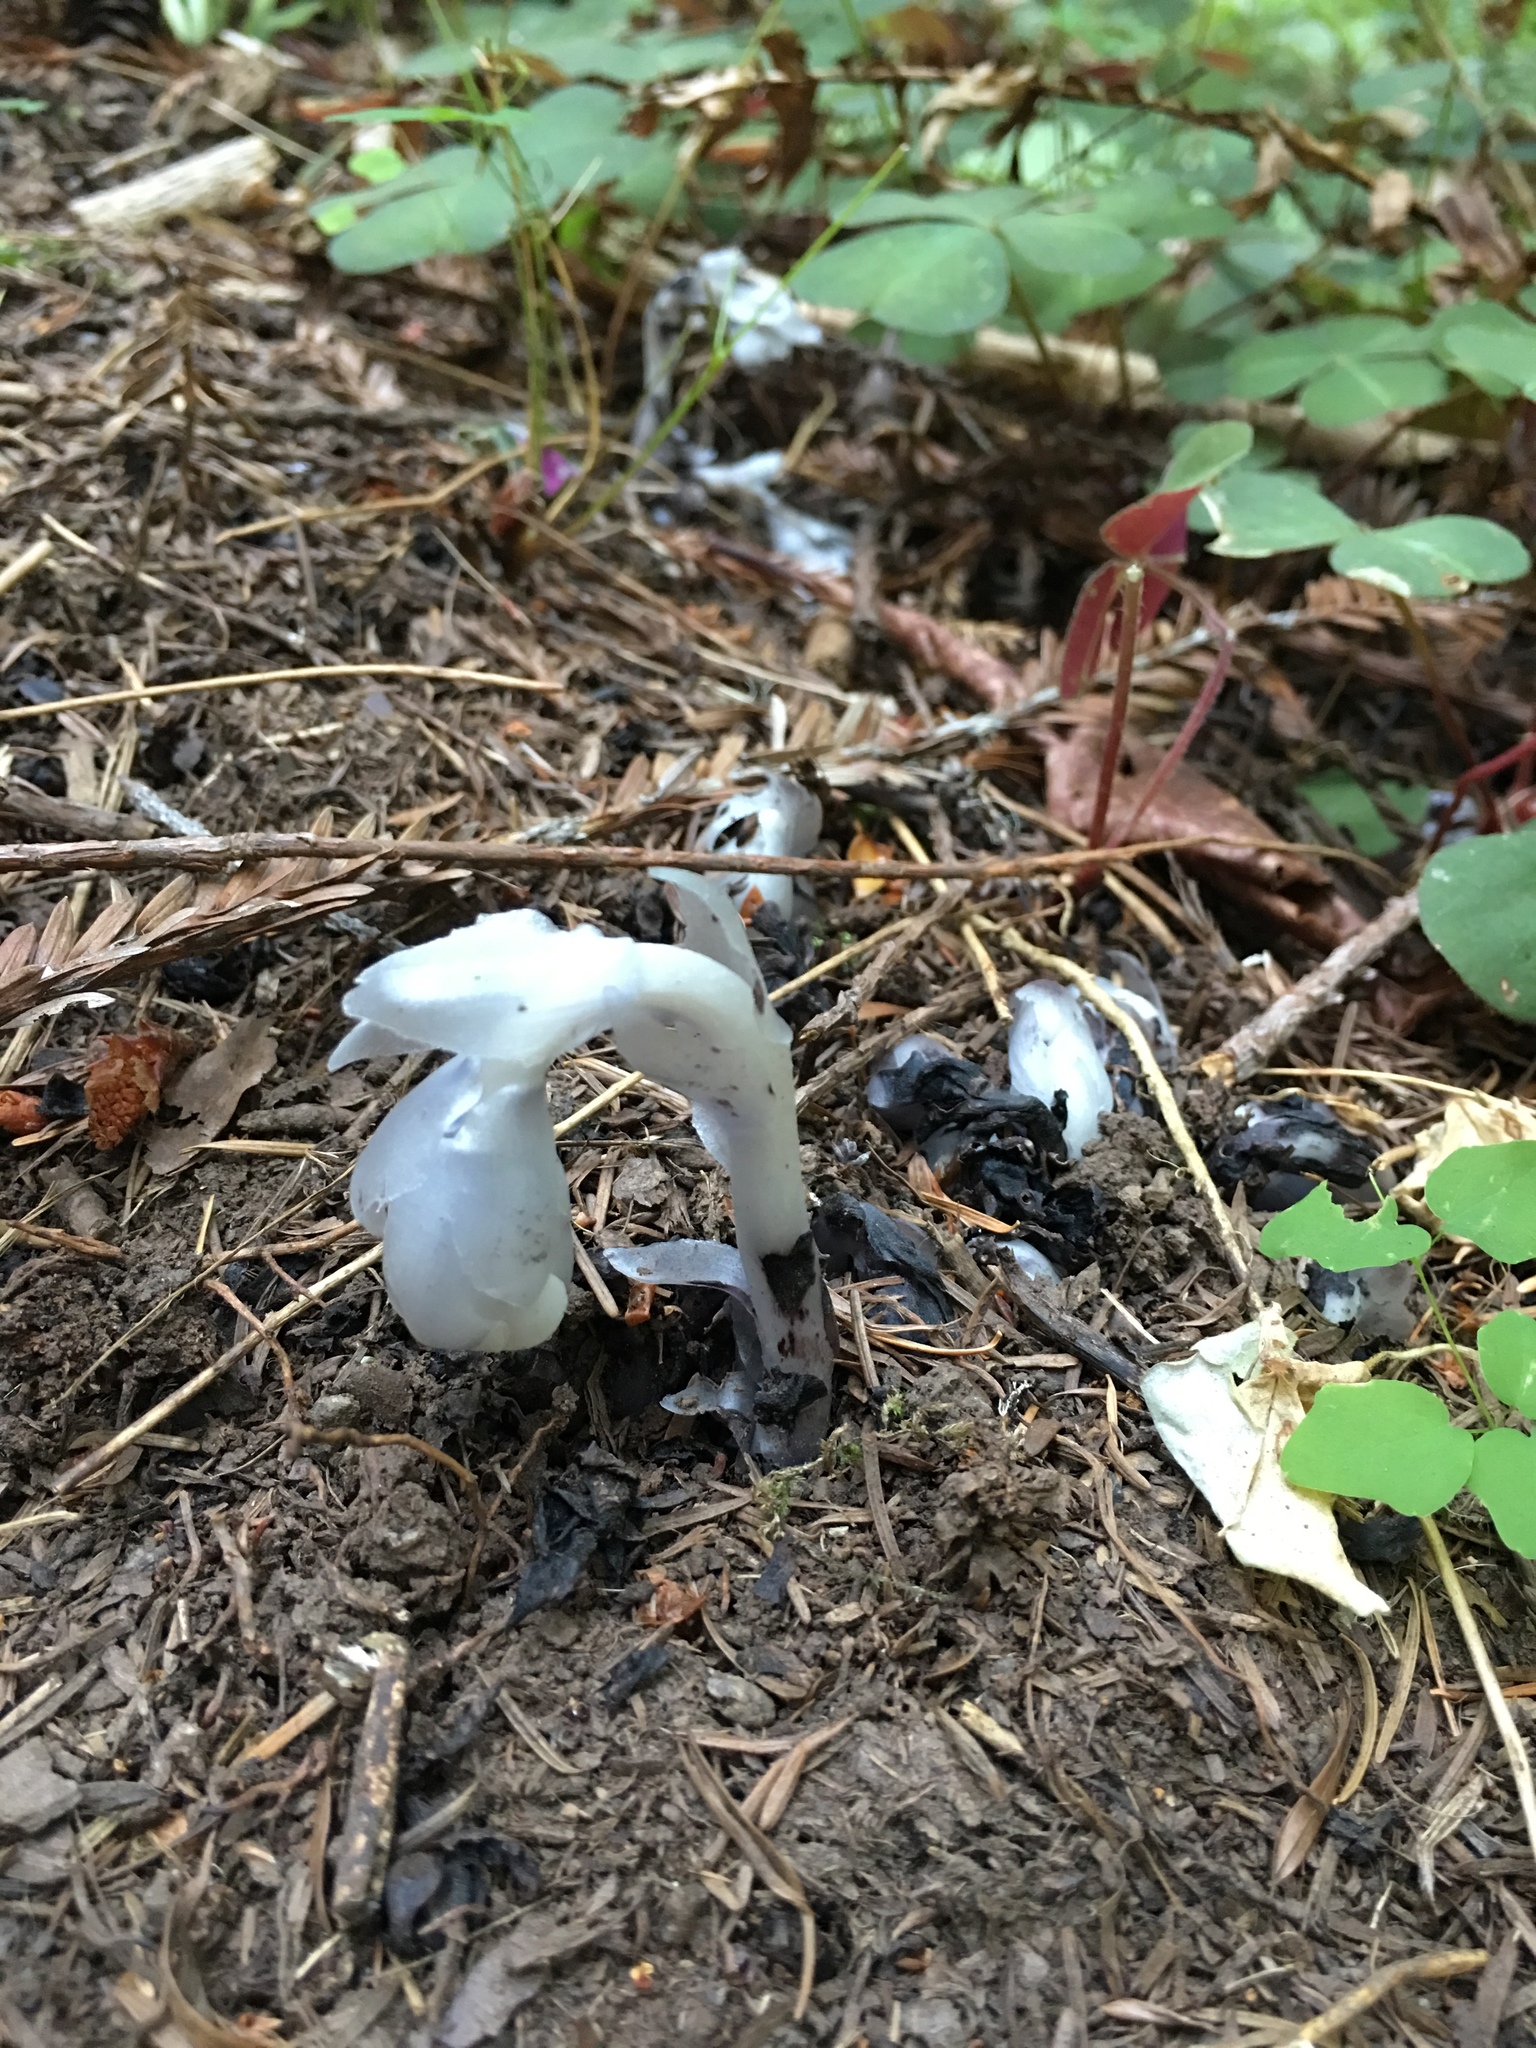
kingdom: Plantae
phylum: Tracheophyta
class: Magnoliopsida
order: Ericales
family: Ericaceae
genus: Monotropa
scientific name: Monotropa uniflora
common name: Convulsion root
